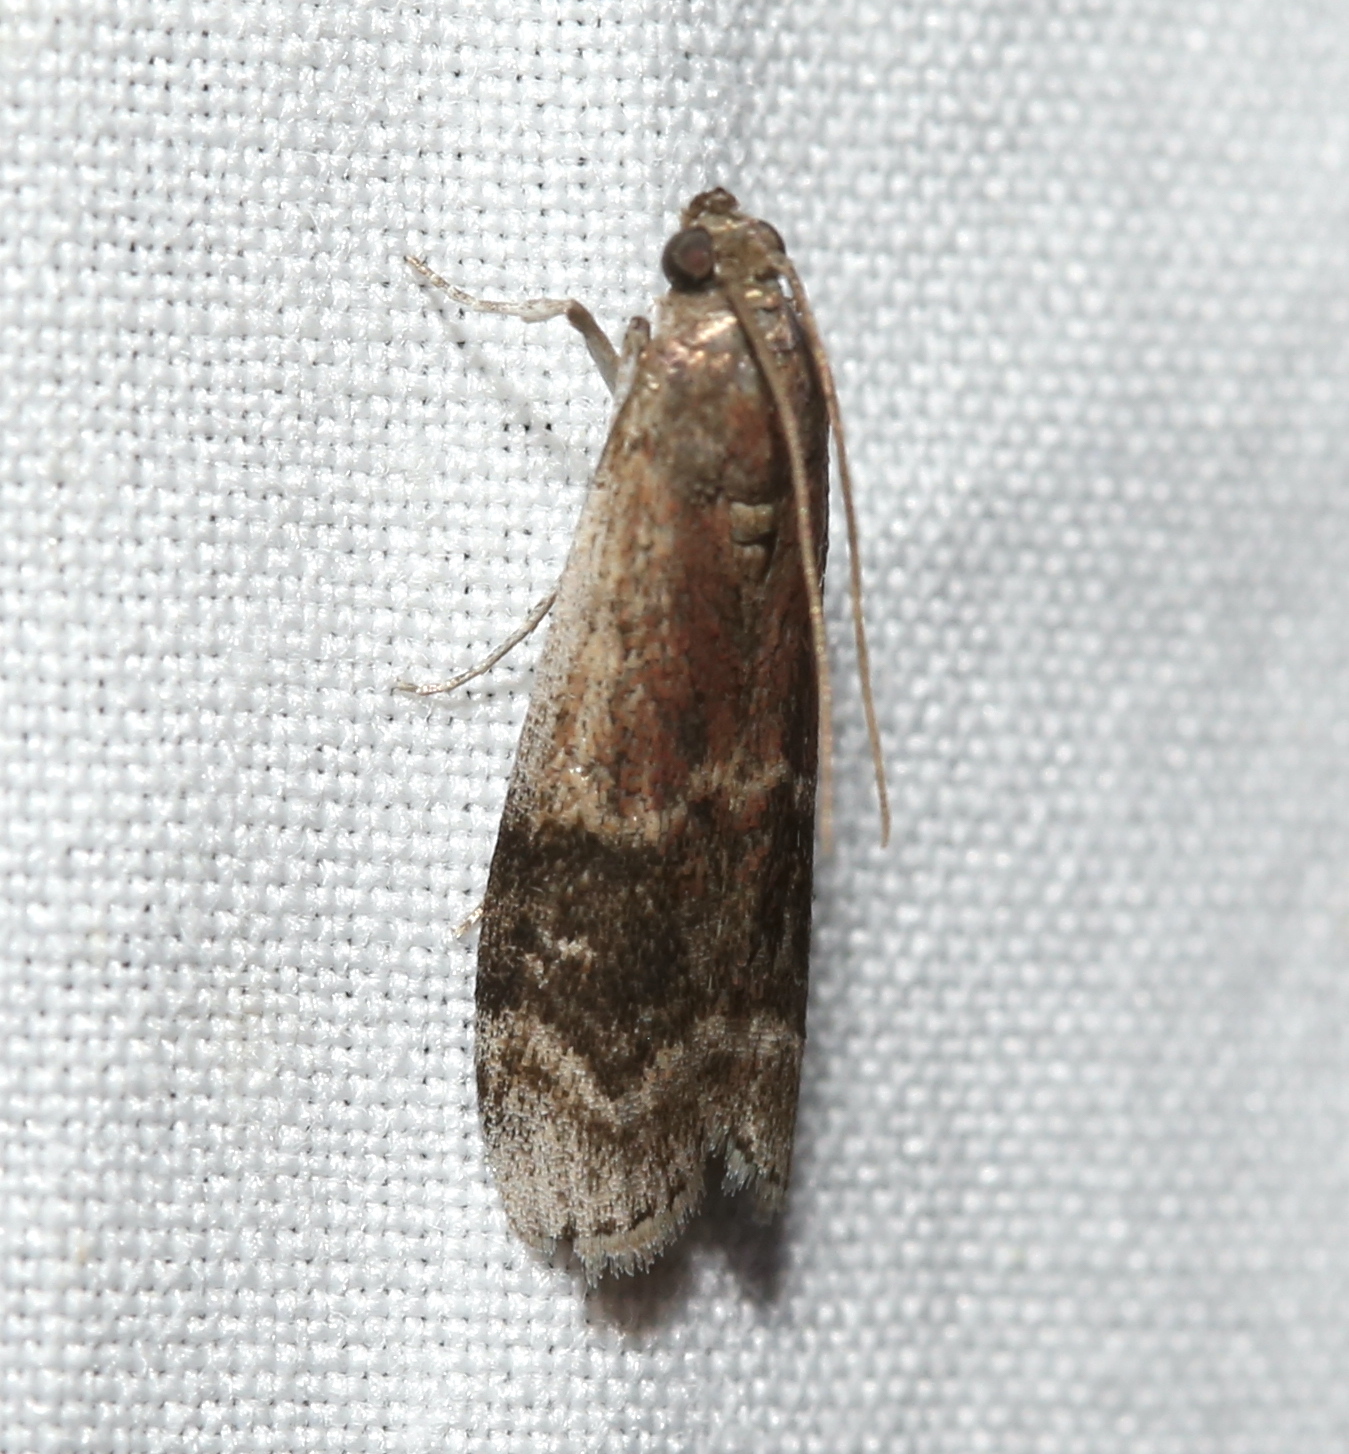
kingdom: Animalia
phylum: Arthropoda
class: Insecta
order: Lepidoptera
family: Pyralidae
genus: Euzophera
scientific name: Euzophera semifuneralis
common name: American plum borer moth
